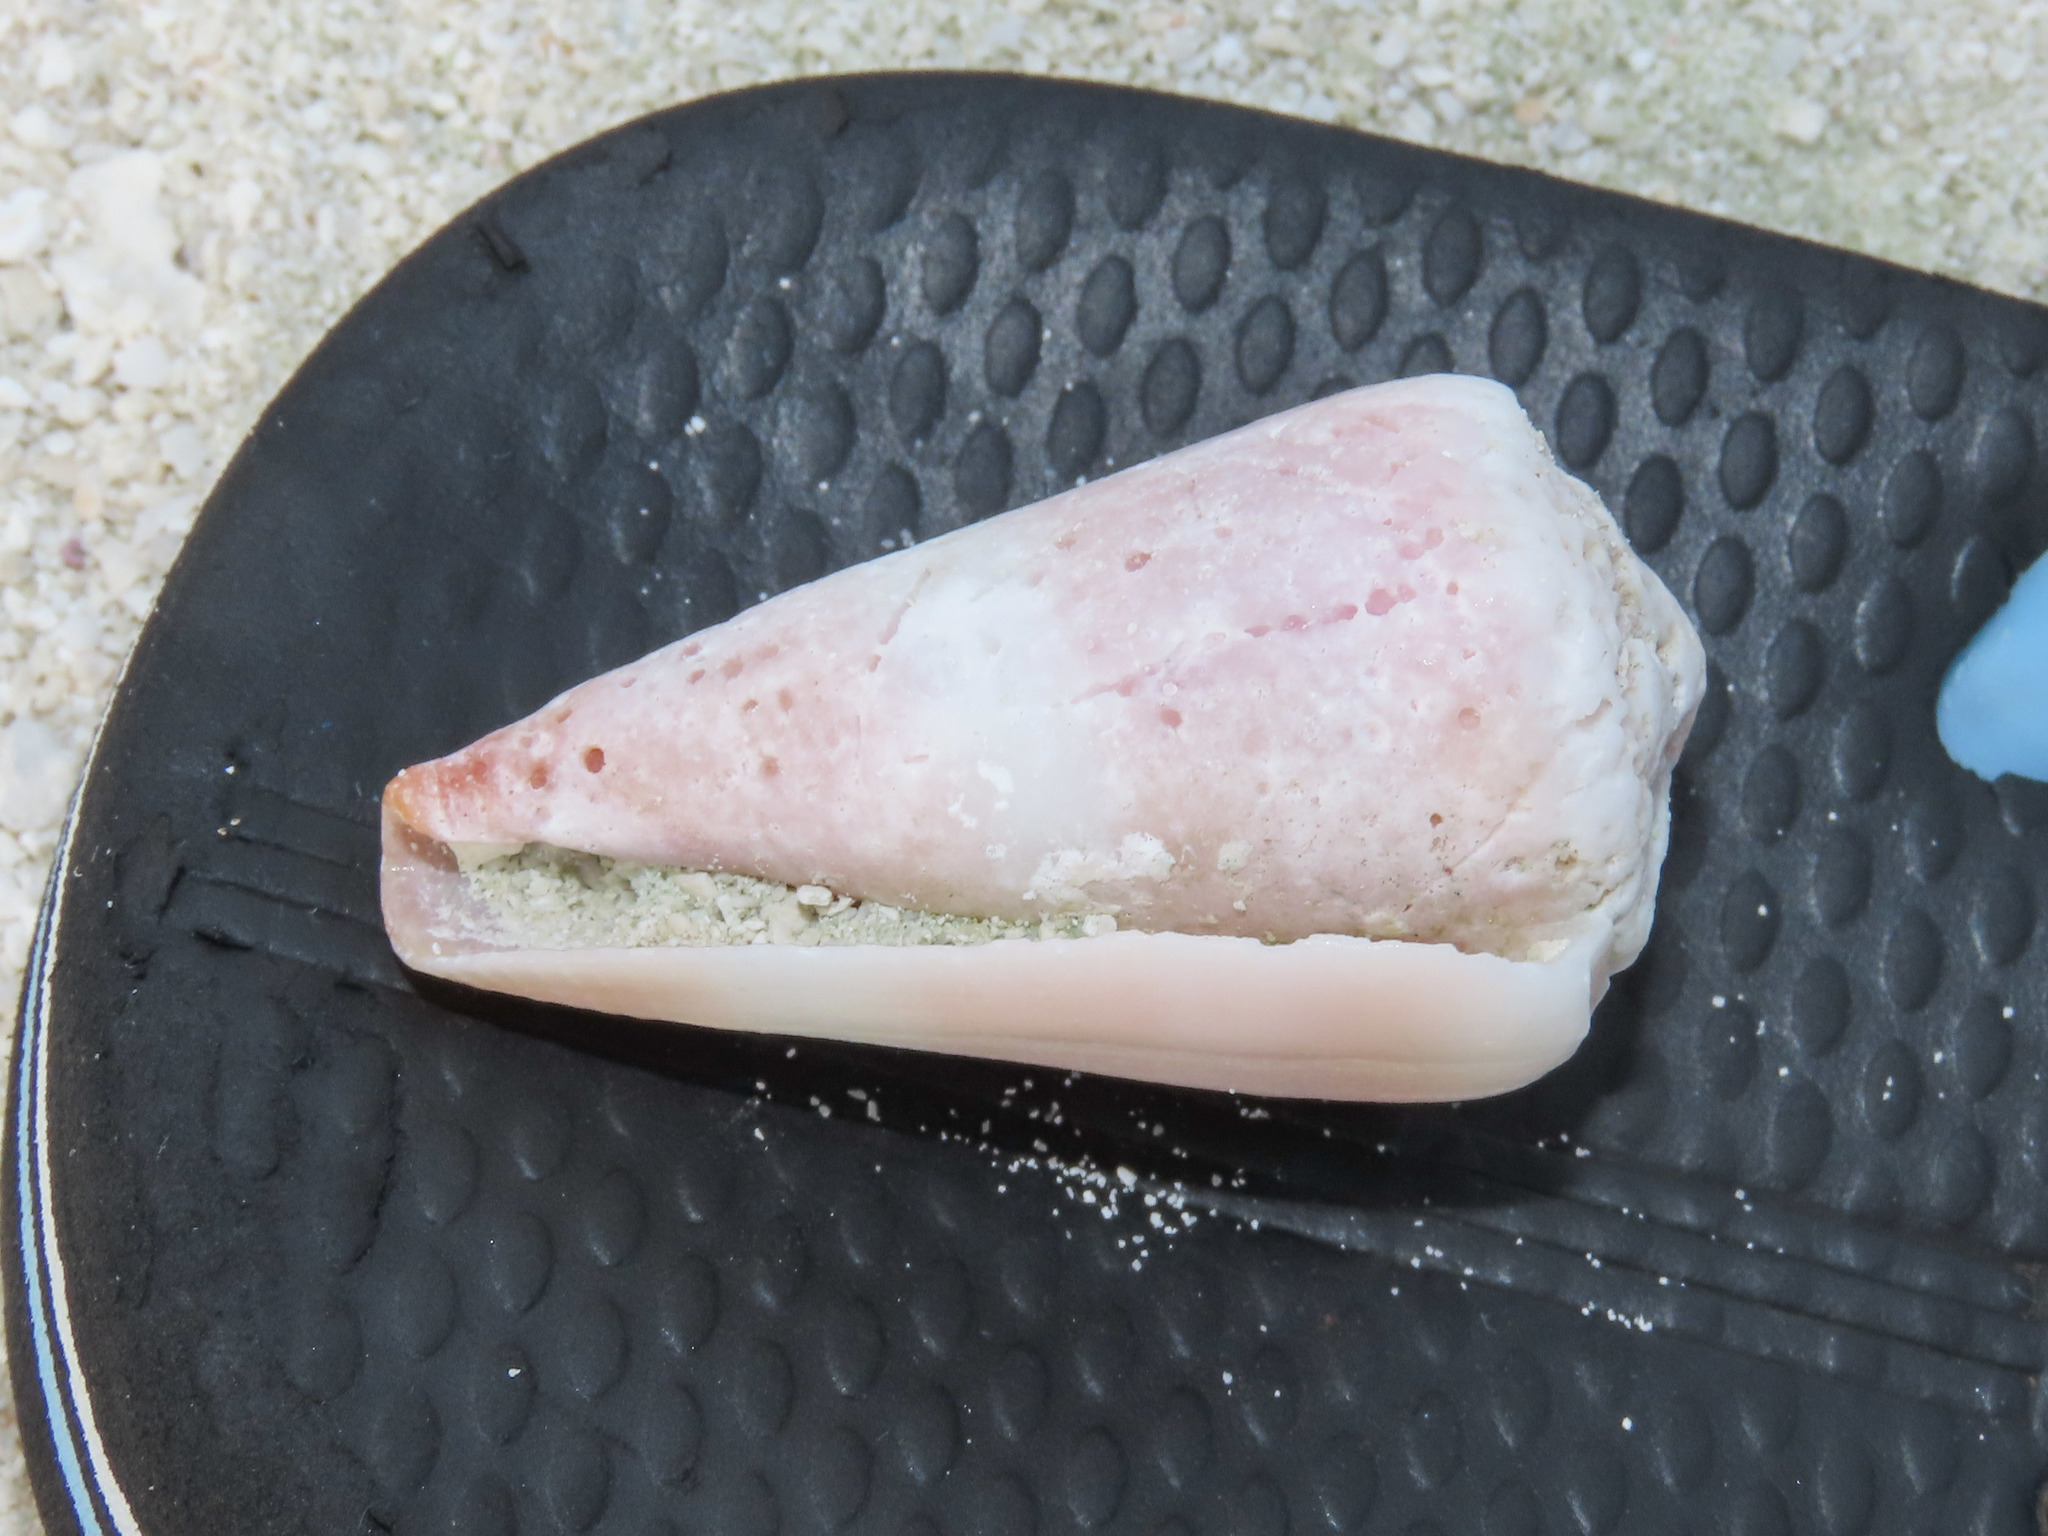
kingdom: Animalia
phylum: Mollusca
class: Gastropoda
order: Neogastropoda
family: Conidae
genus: Conus
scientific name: Conus lividus
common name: Livid cone
